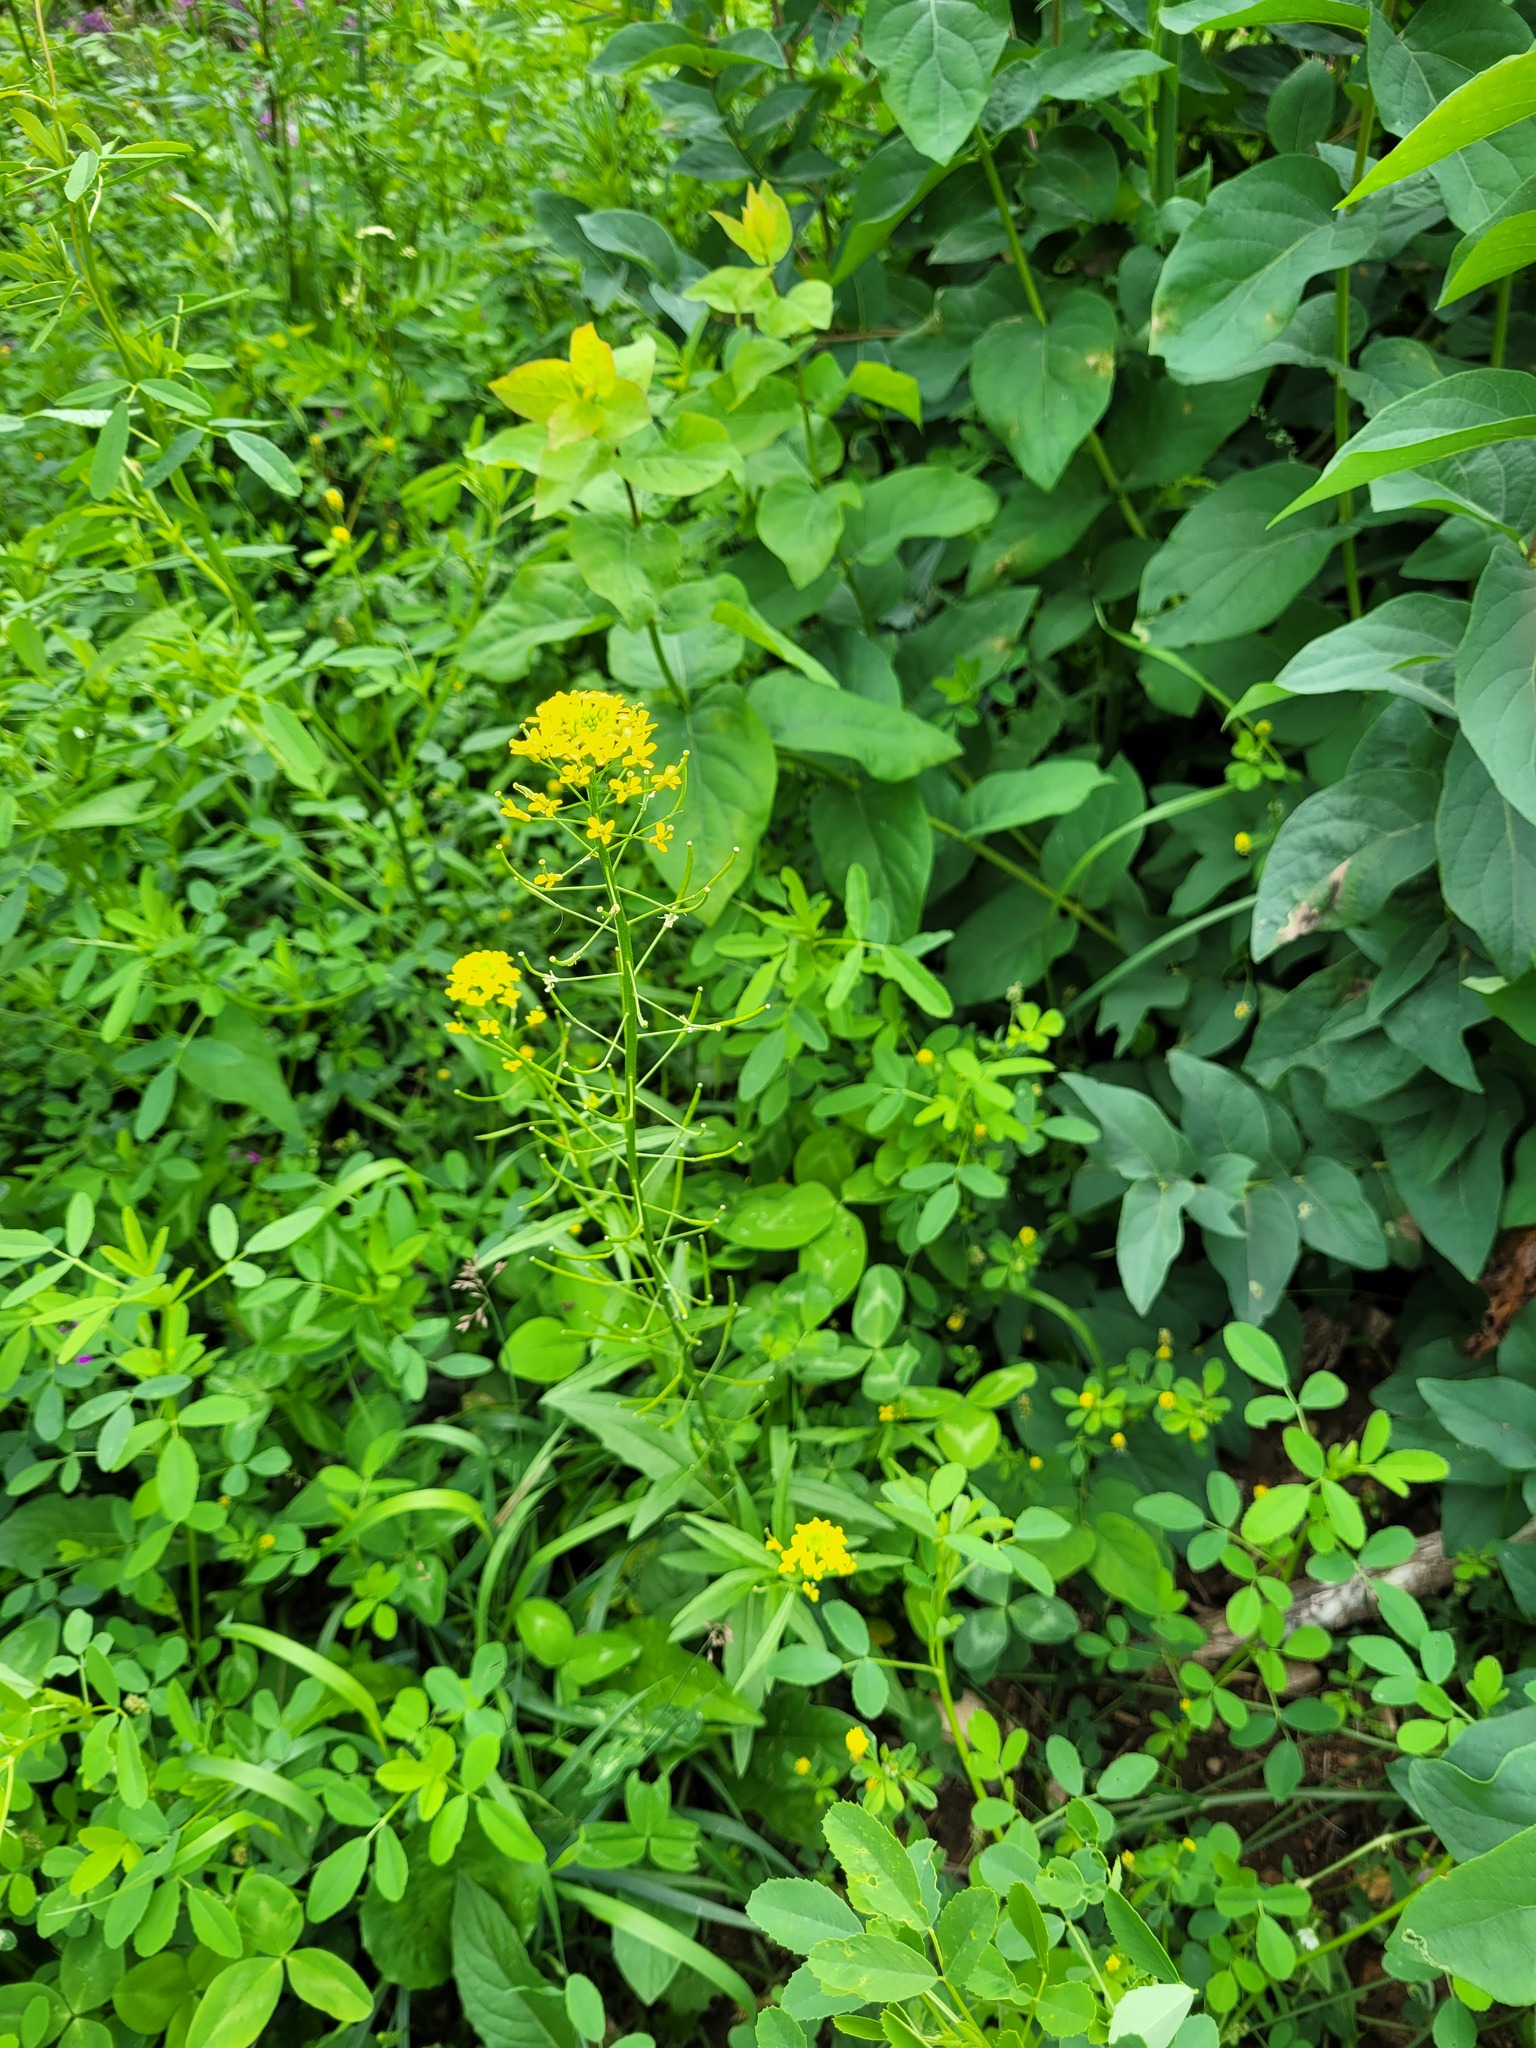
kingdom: Plantae
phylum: Tracheophyta
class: Magnoliopsida
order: Brassicales
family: Brassicaceae
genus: Erysimum
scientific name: Erysimum cheiranthoides
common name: Treacle mustard
